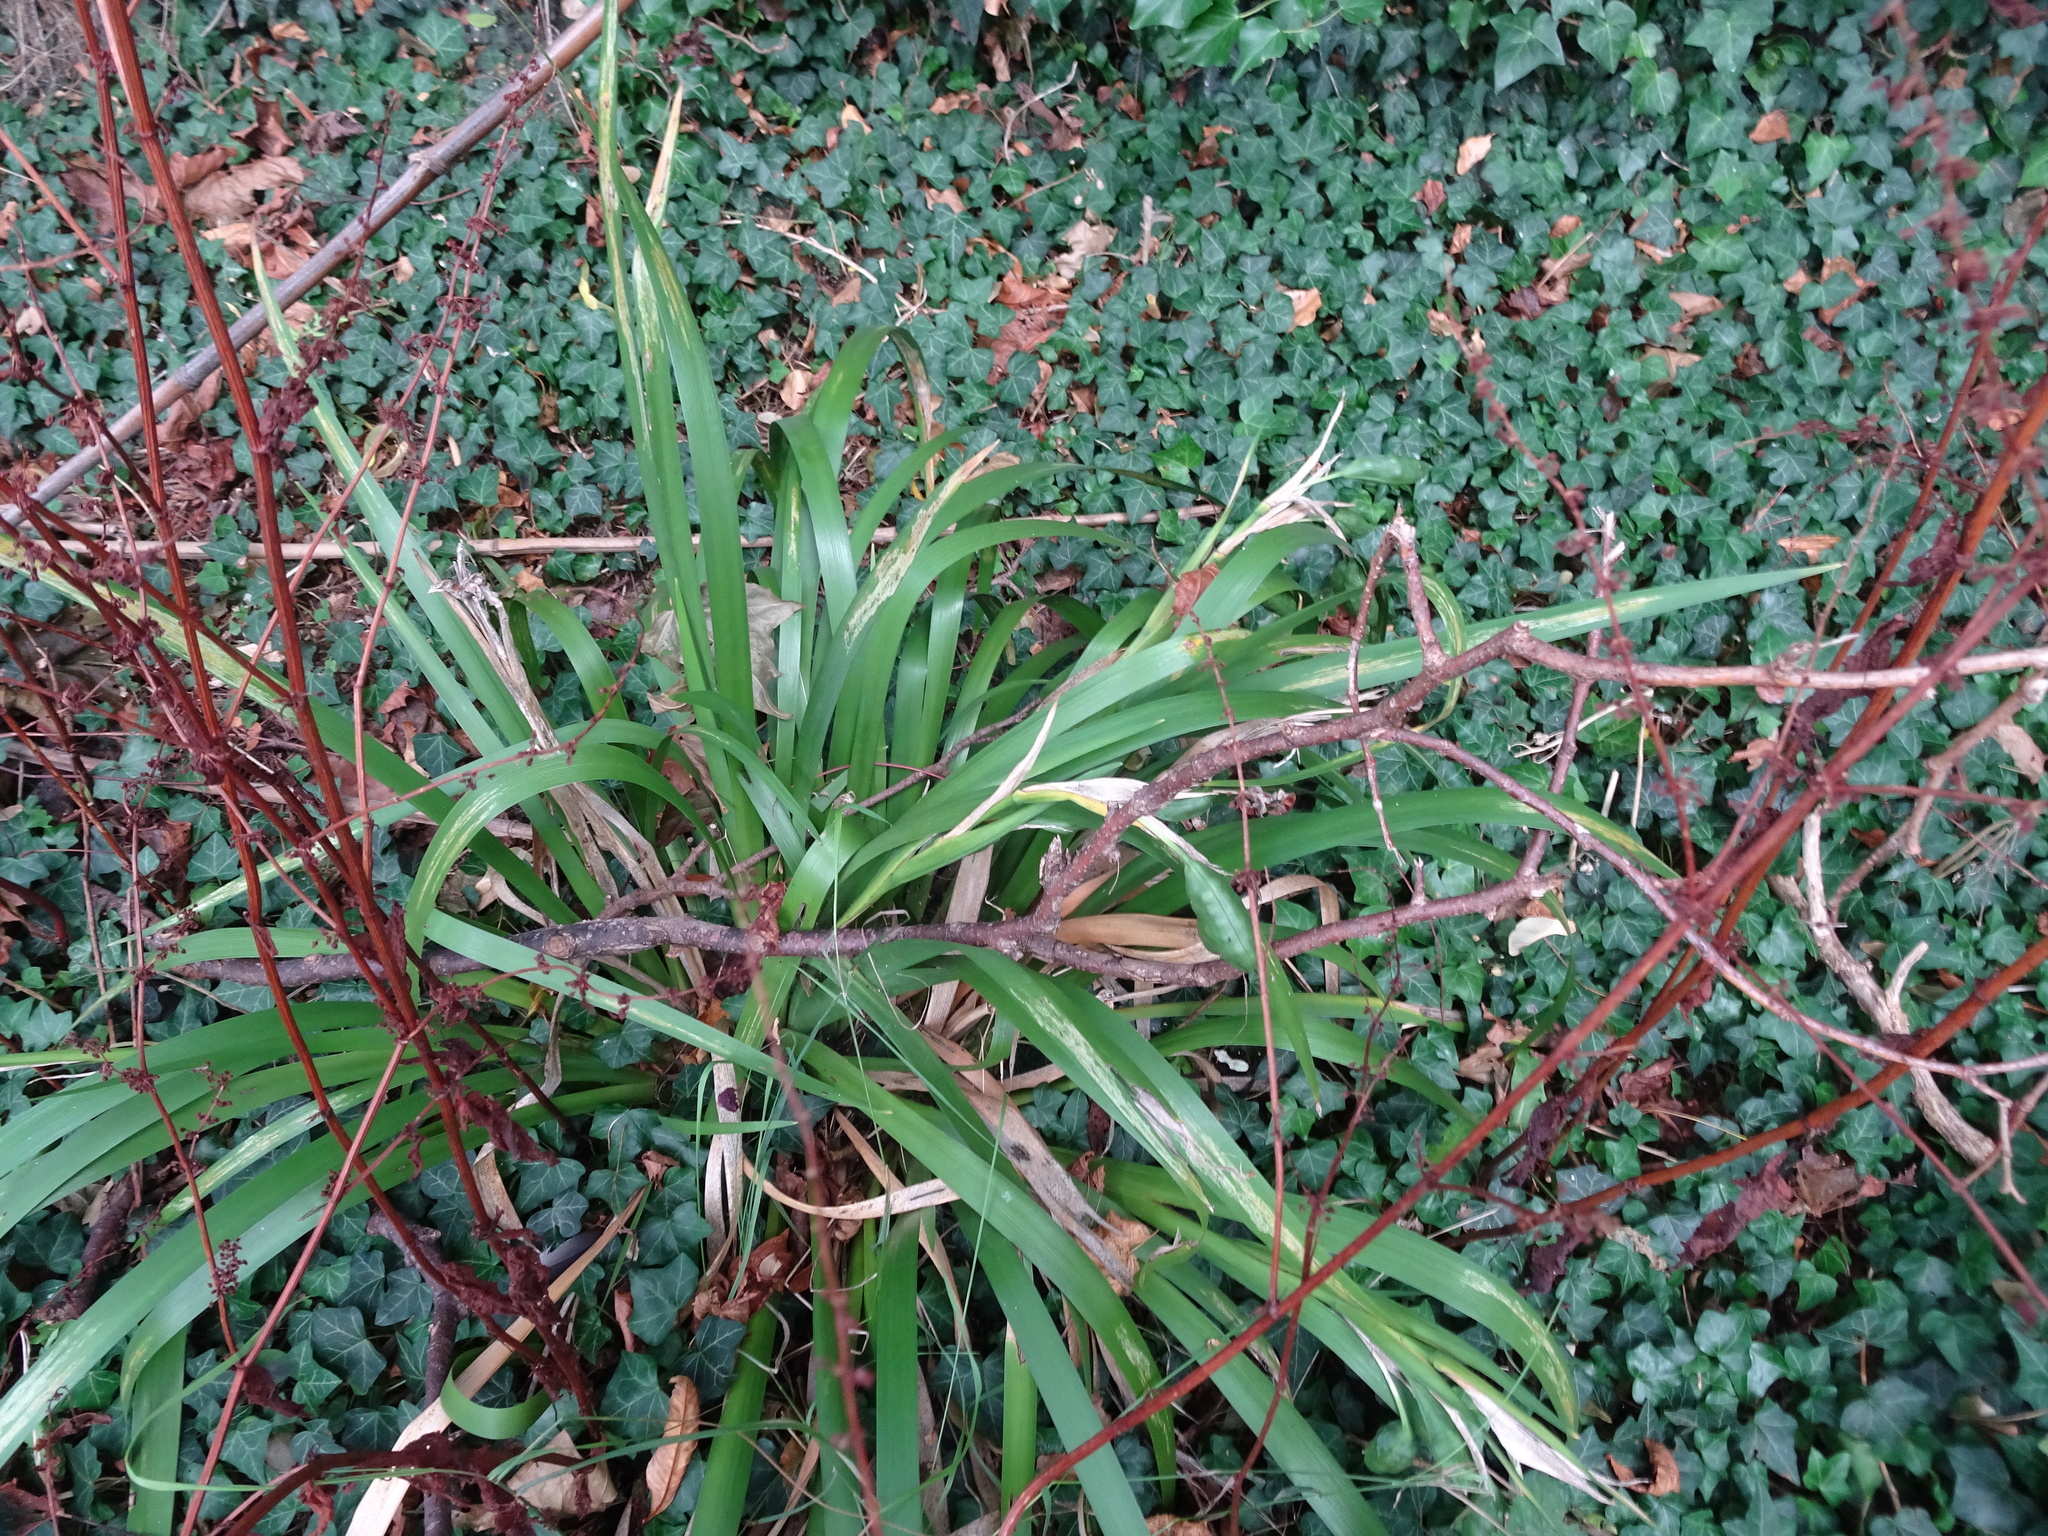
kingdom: Plantae
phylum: Tracheophyta
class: Liliopsida
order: Asparagales
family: Iridaceae
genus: Iris
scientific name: Iris foetidissima
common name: Stinking iris
